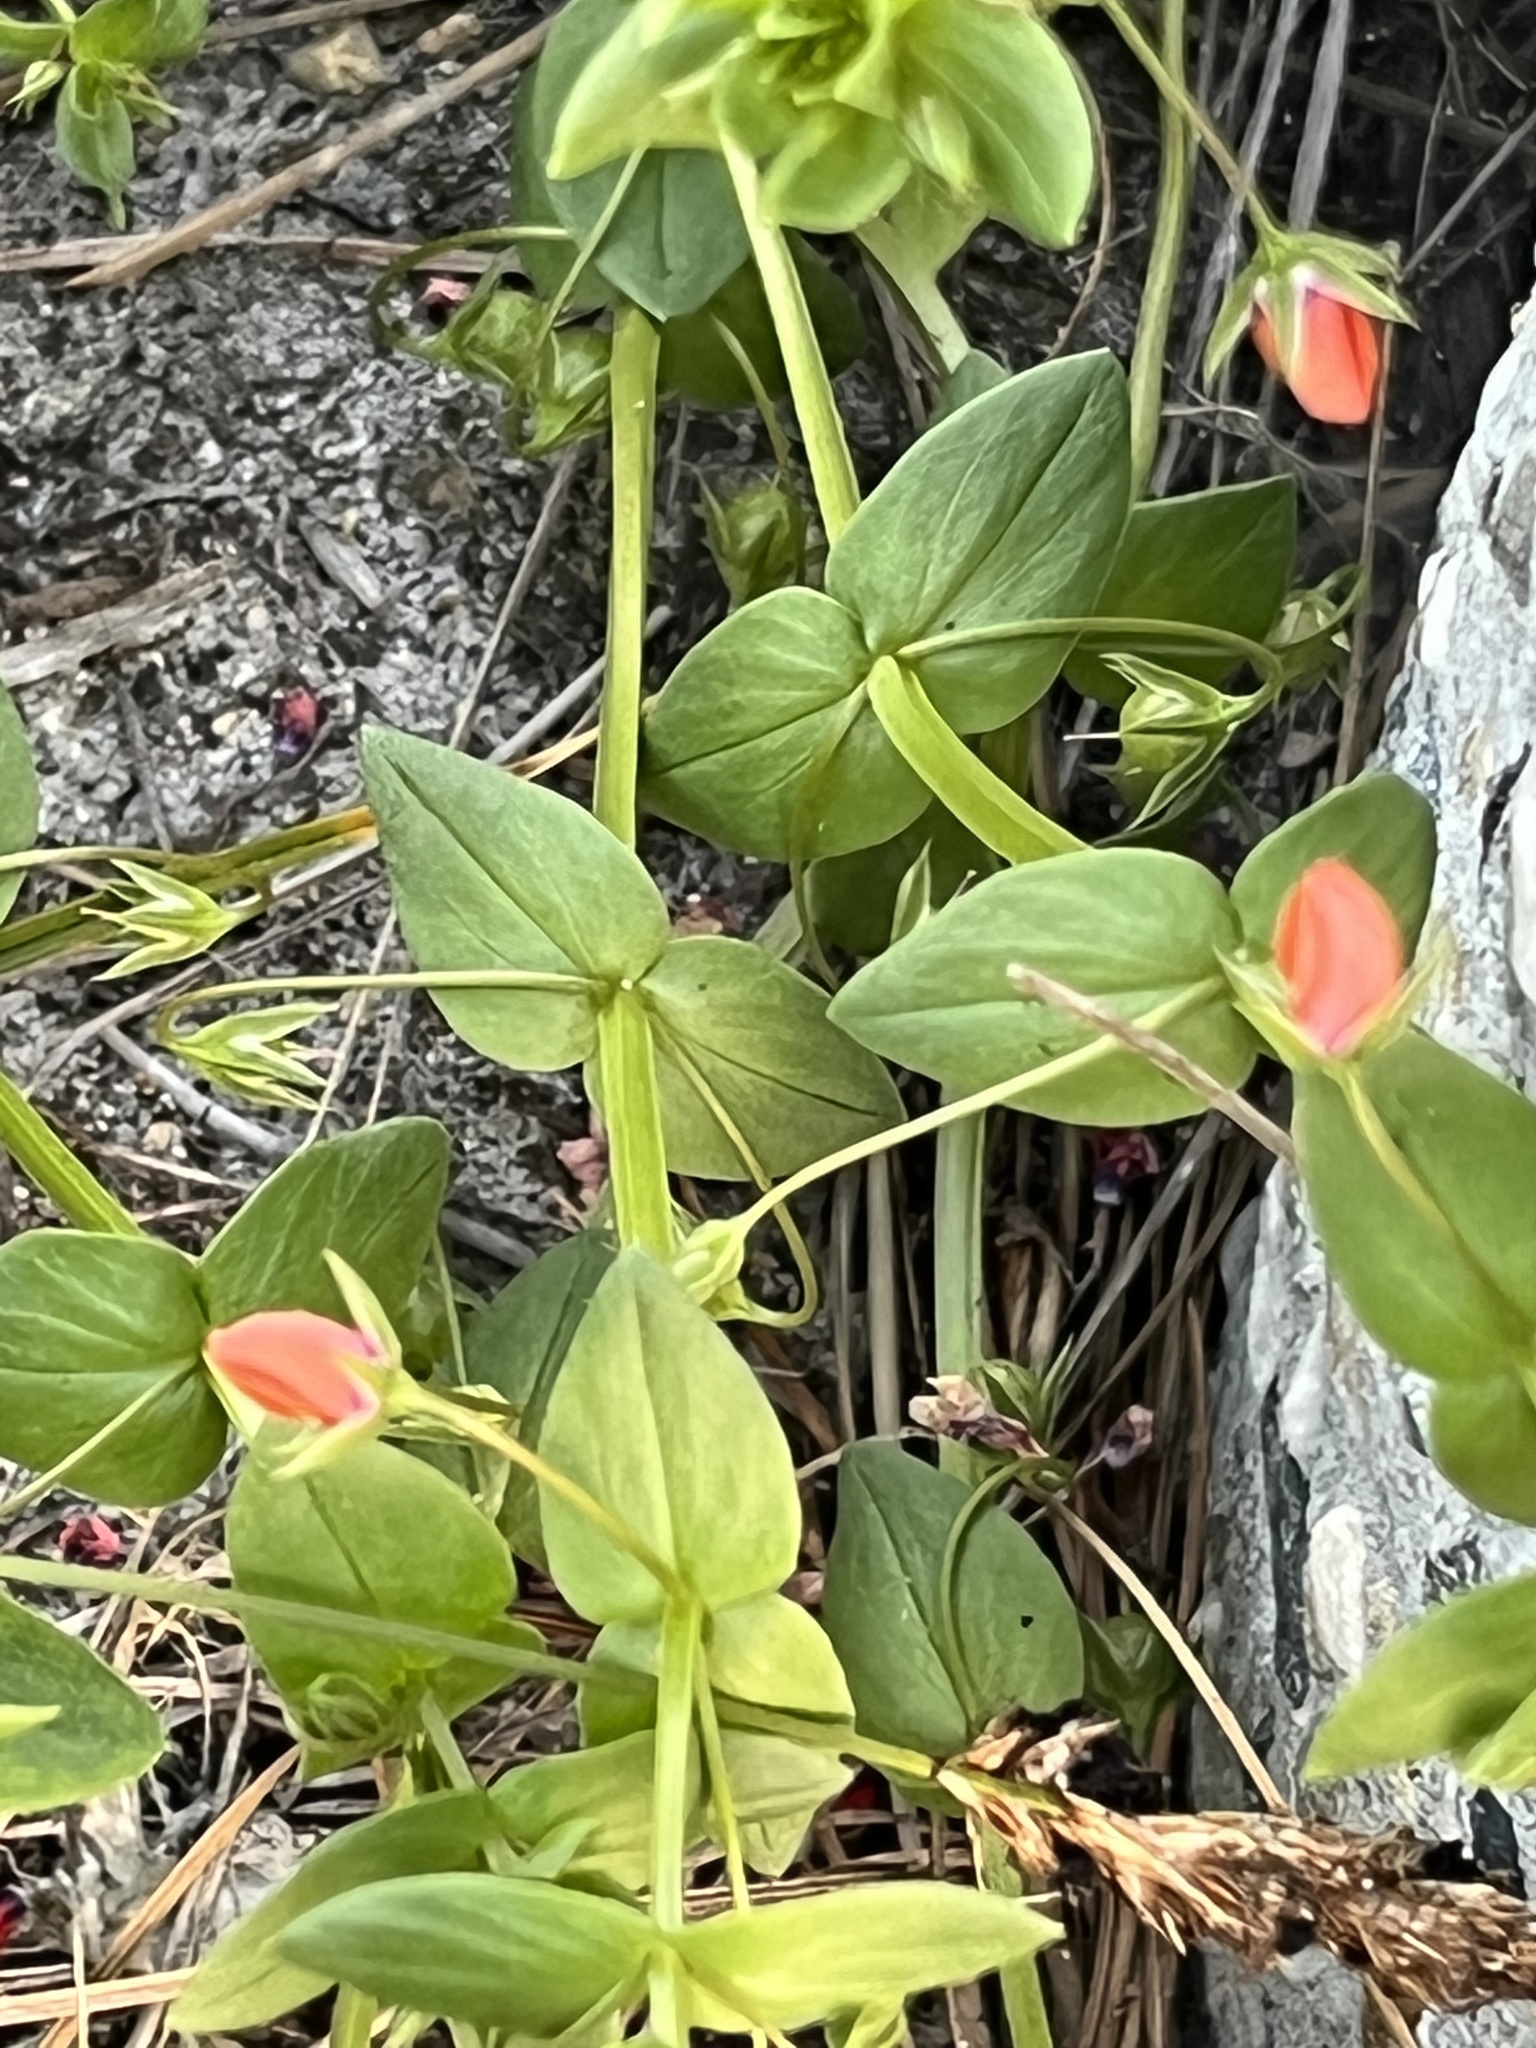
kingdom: Plantae
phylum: Tracheophyta
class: Magnoliopsida
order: Ericales
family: Primulaceae
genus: Lysimachia
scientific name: Lysimachia arvensis
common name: Scarlet pimpernel
